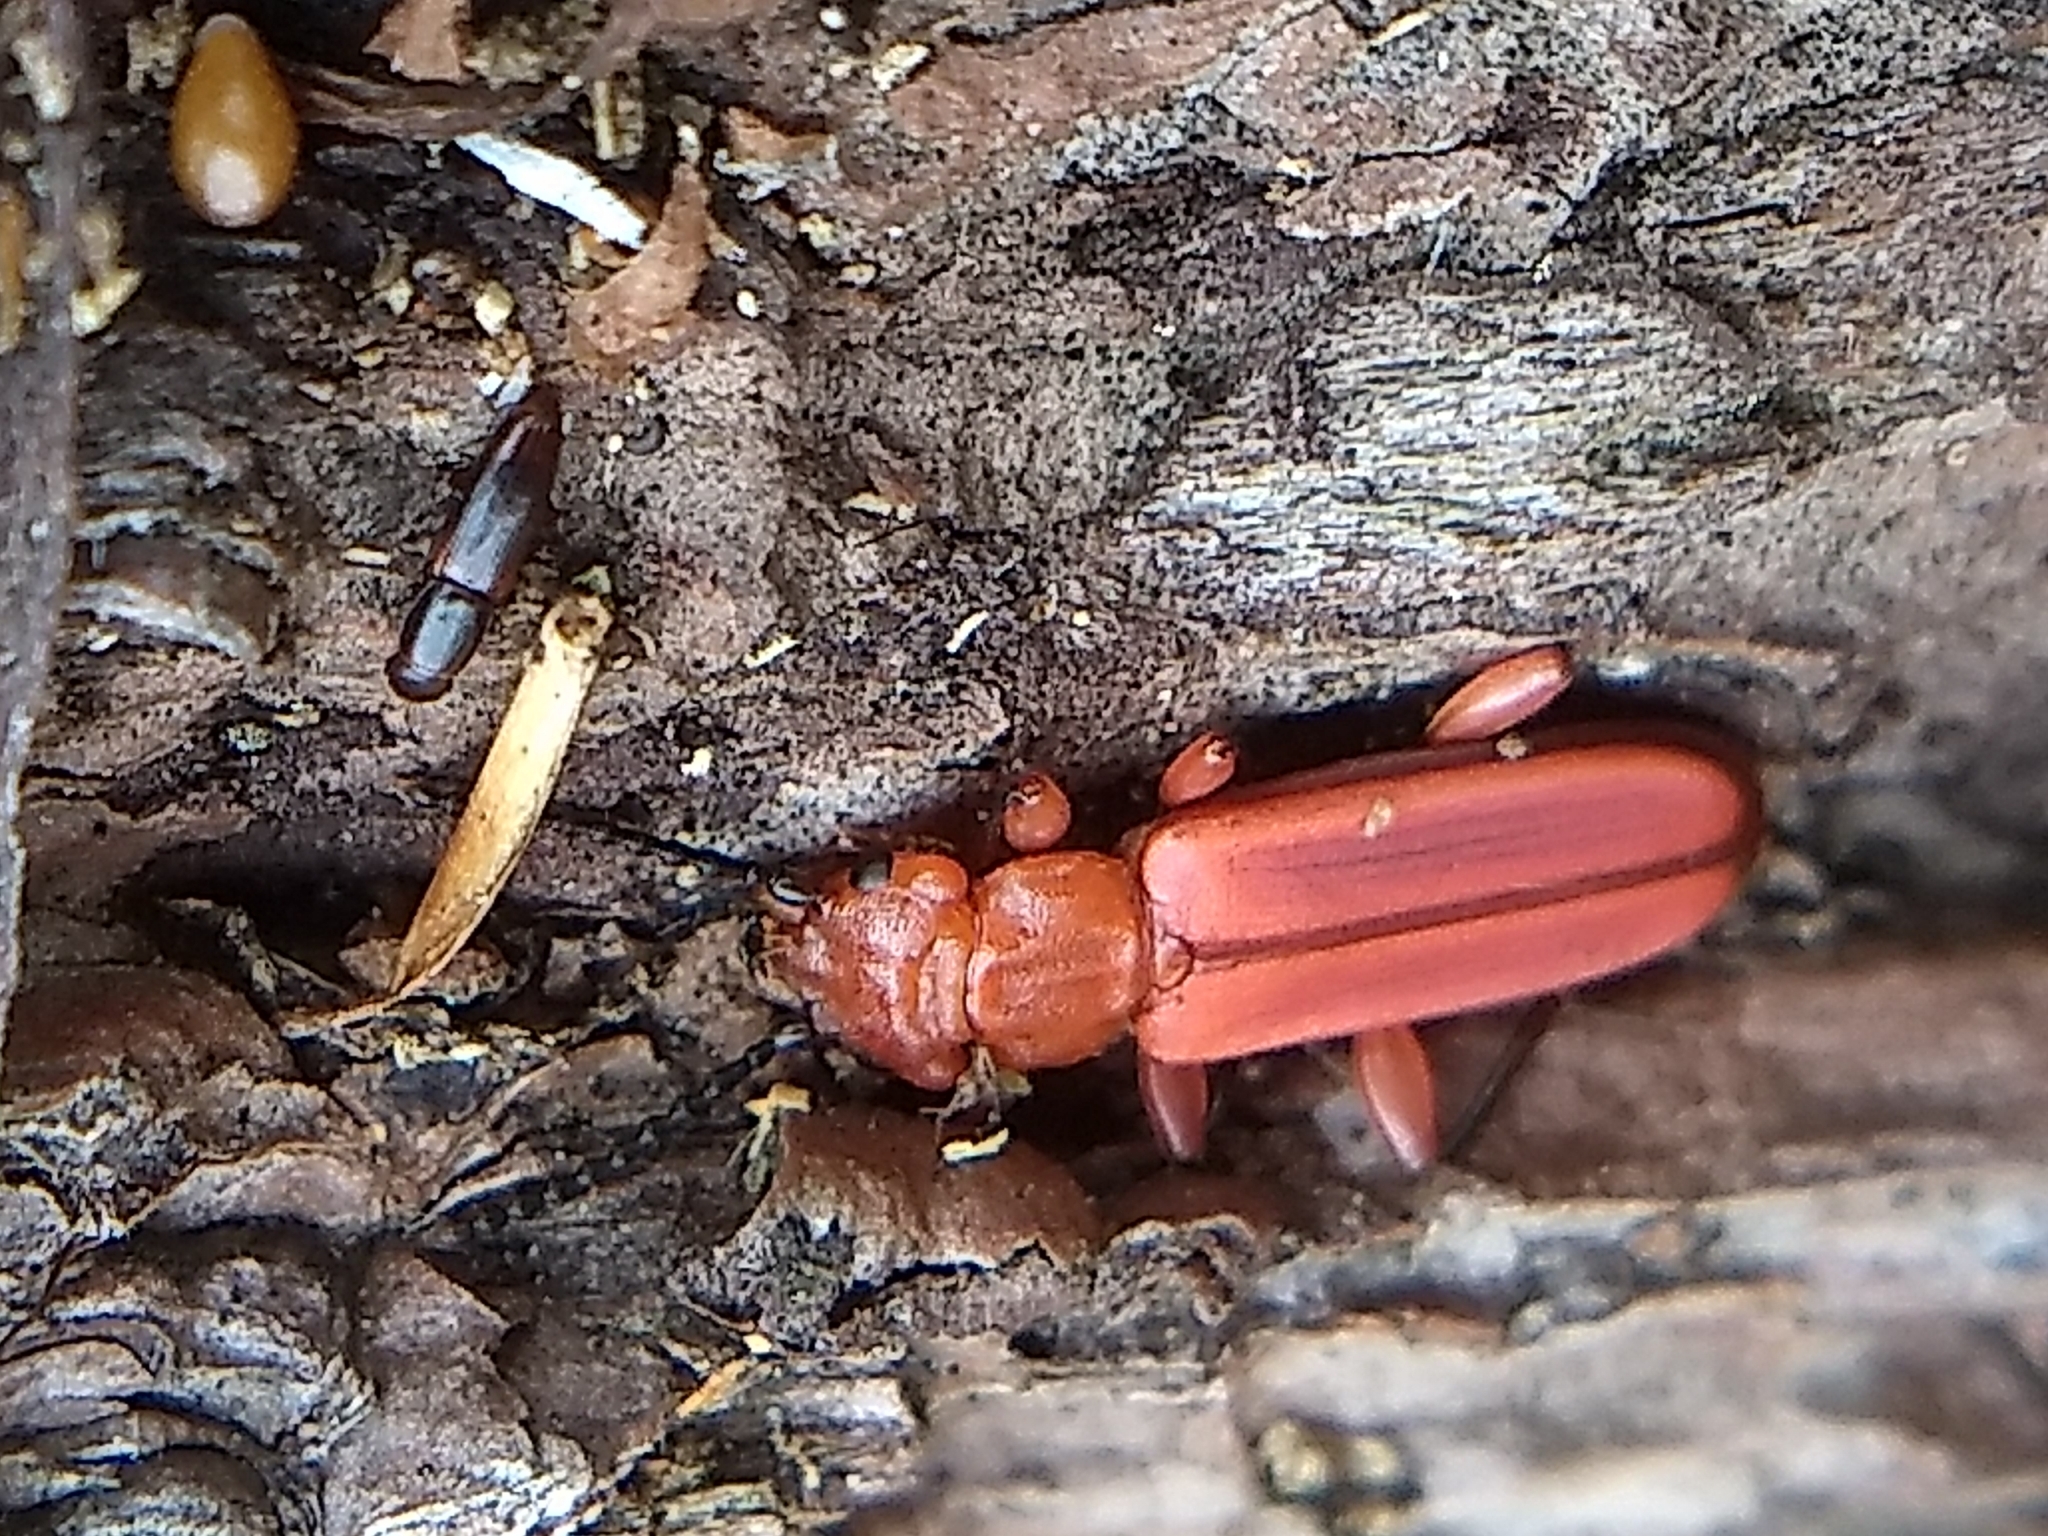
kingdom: Animalia
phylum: Arthropoda
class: Insecta
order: Coleoptera
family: Cucujidae
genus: Cucujus
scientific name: Cucujus clavipes
